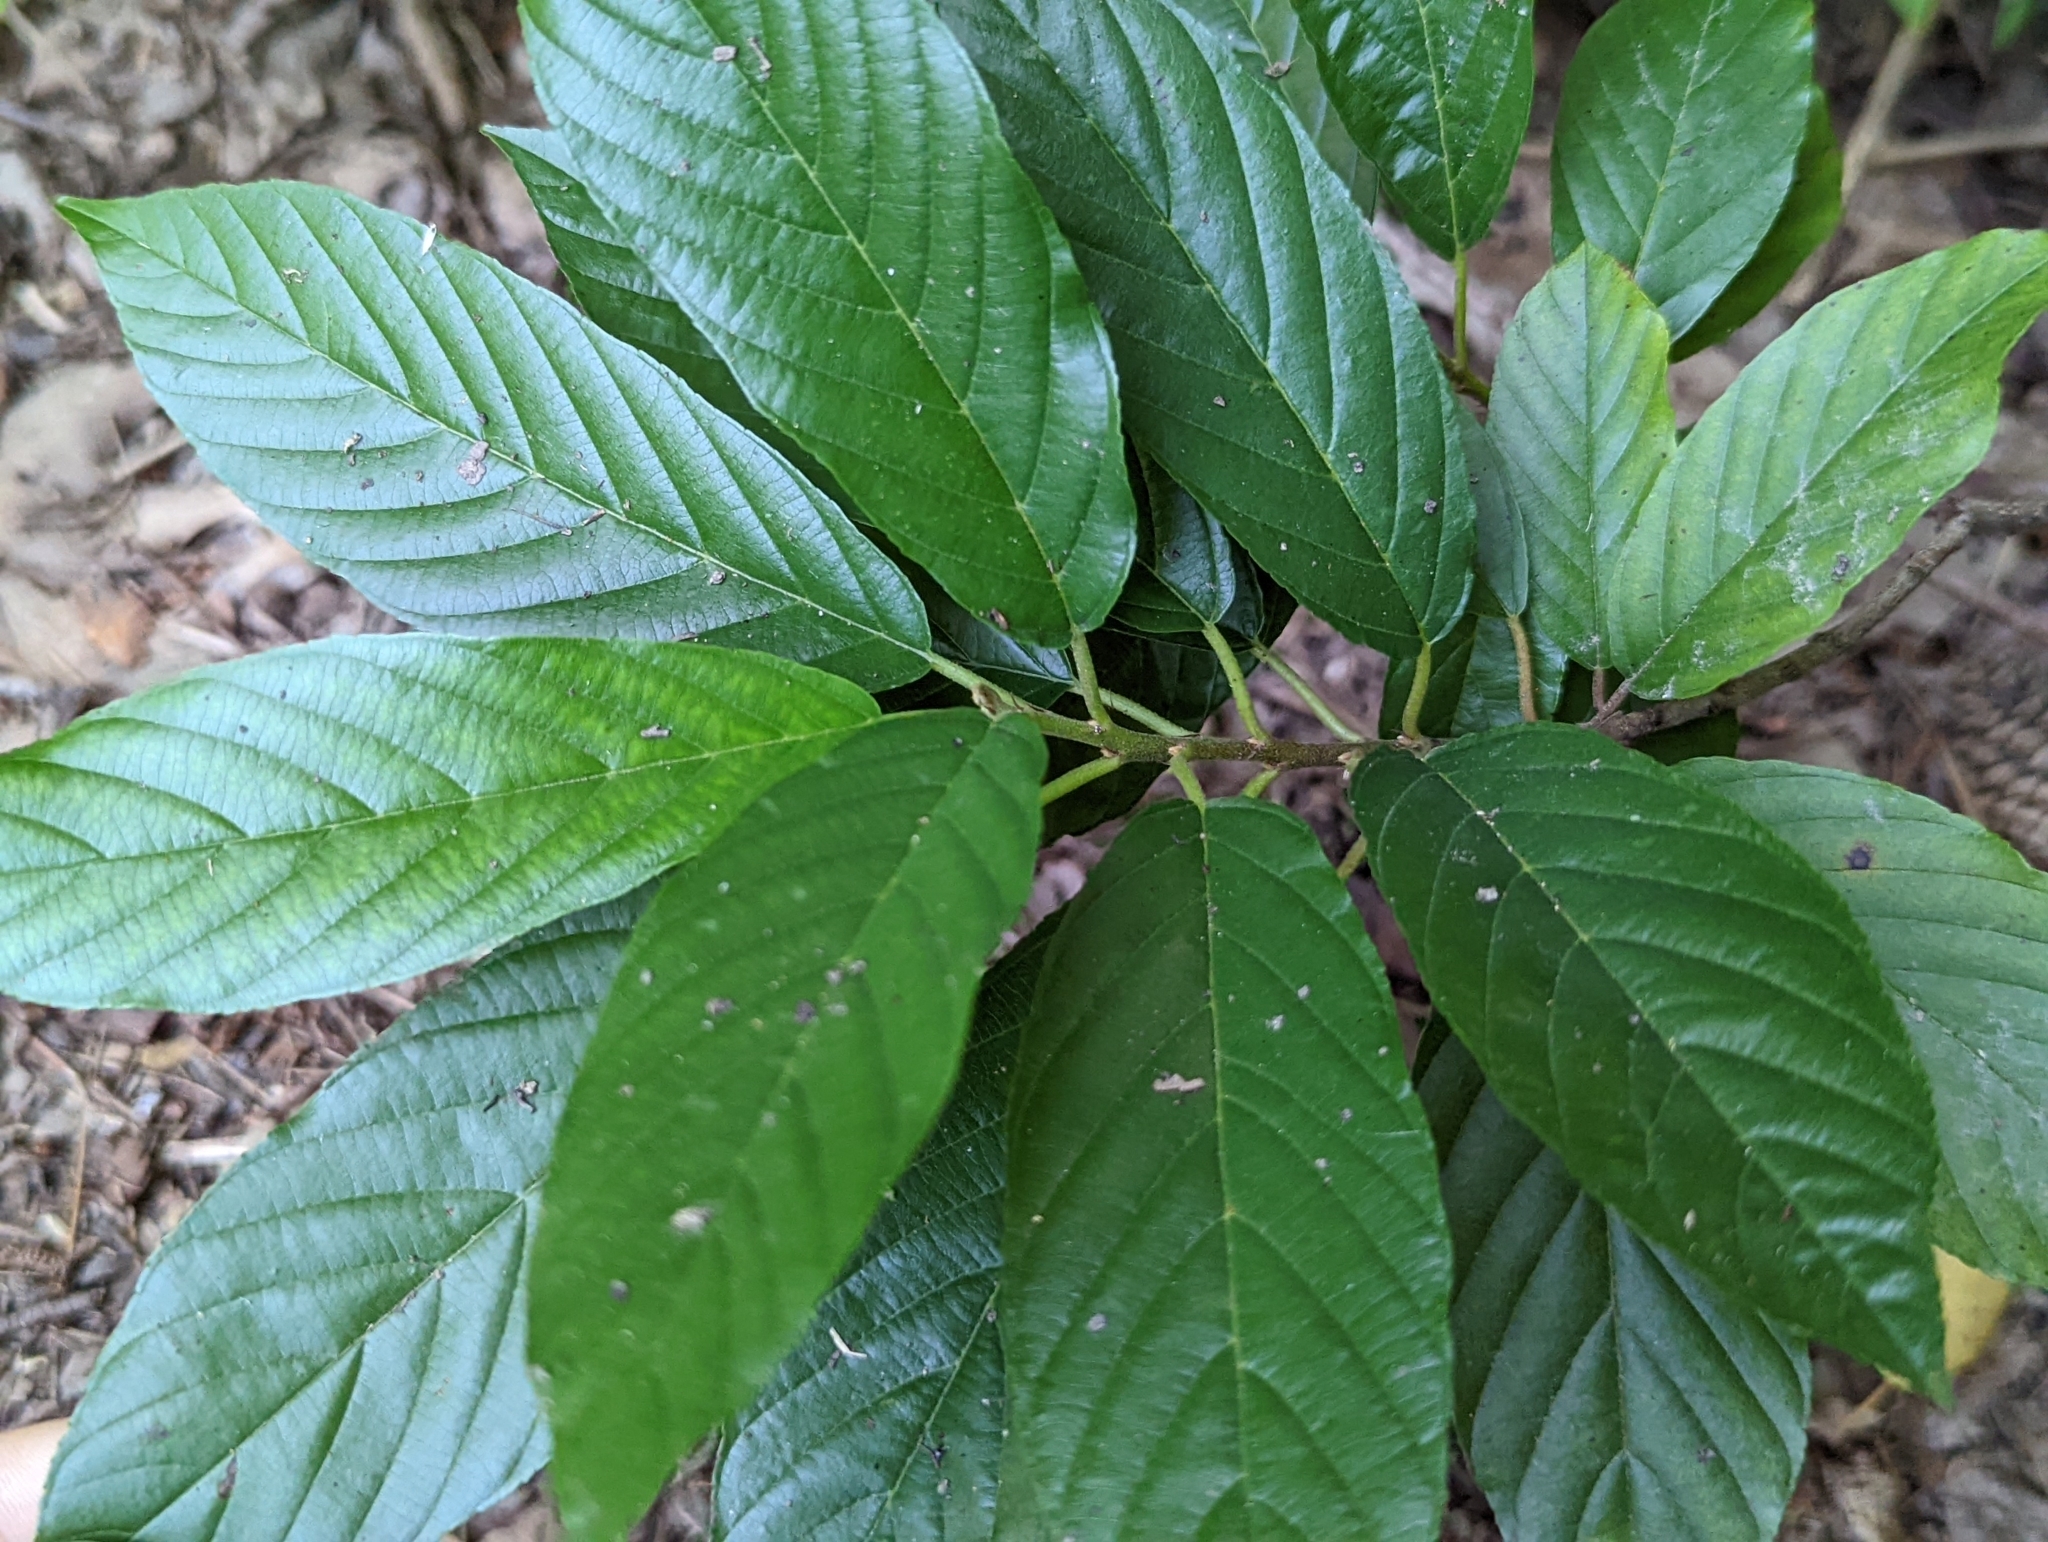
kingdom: Plantae
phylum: Tracheophyta
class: Magnoliopsida
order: Rosales
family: Rhamnaceae
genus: Frangula
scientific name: Frangula caroliniana
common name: Carolina buckthorn
